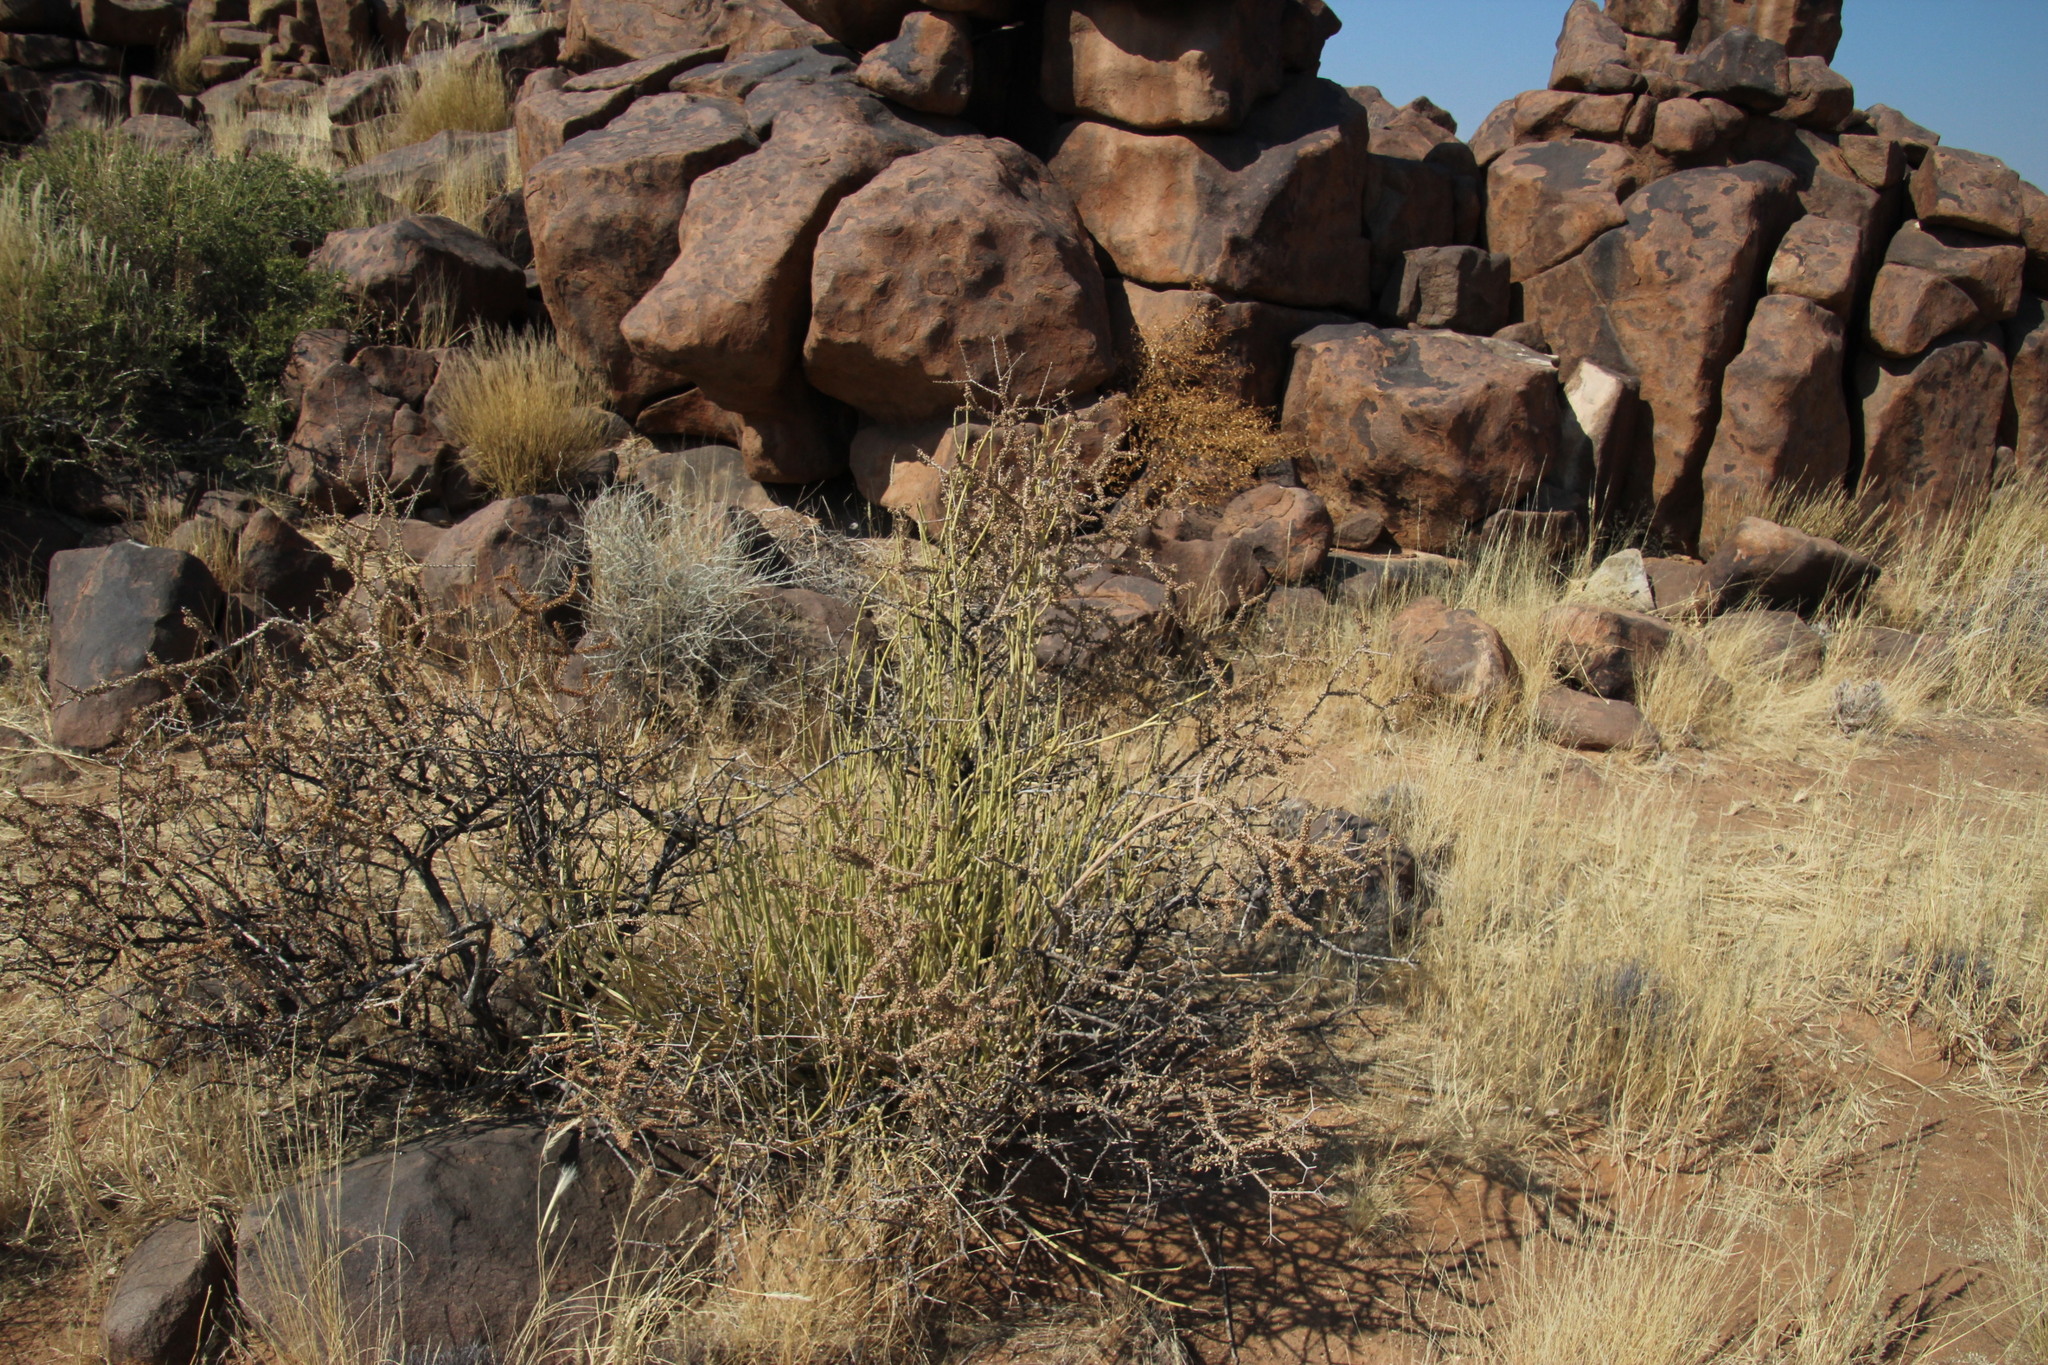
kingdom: Plantae
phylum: Tracheophyta
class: Magnoliopsida
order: Lamiales
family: Bignoniaceae
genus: Rhigozum
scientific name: Rhigozum trichotomum
